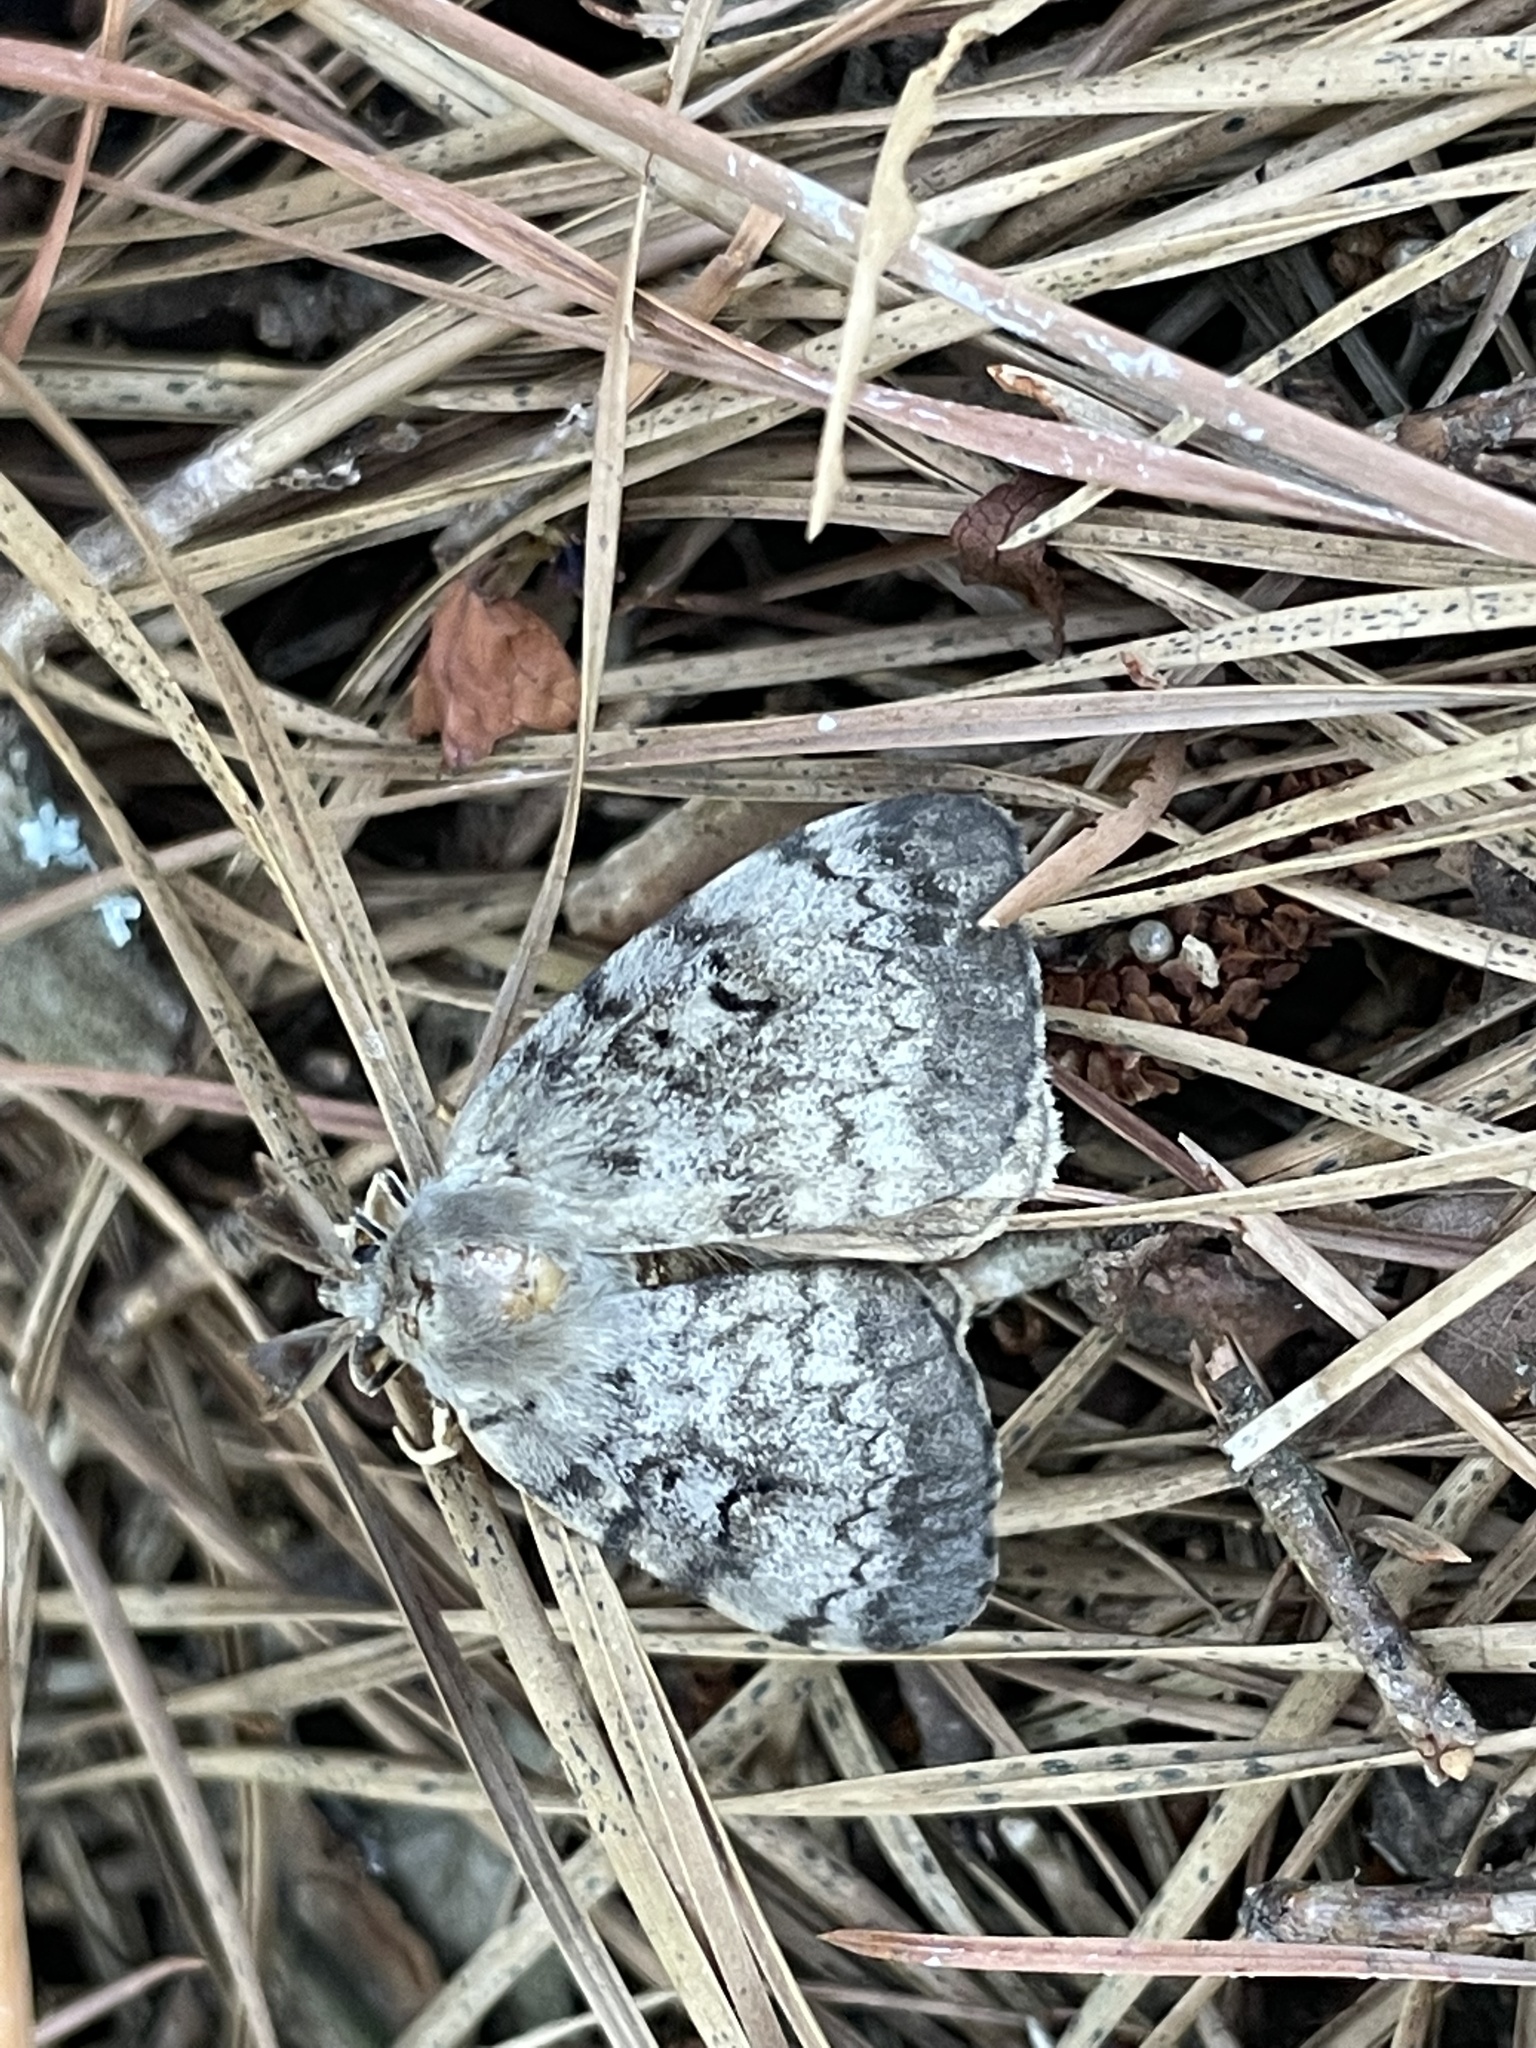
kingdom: Animalia
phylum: Arthropoda
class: Insecta
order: Lepidoptera
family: Erebidae
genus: Lymantria
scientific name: Lymantria dispar
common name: Gypsy moth
